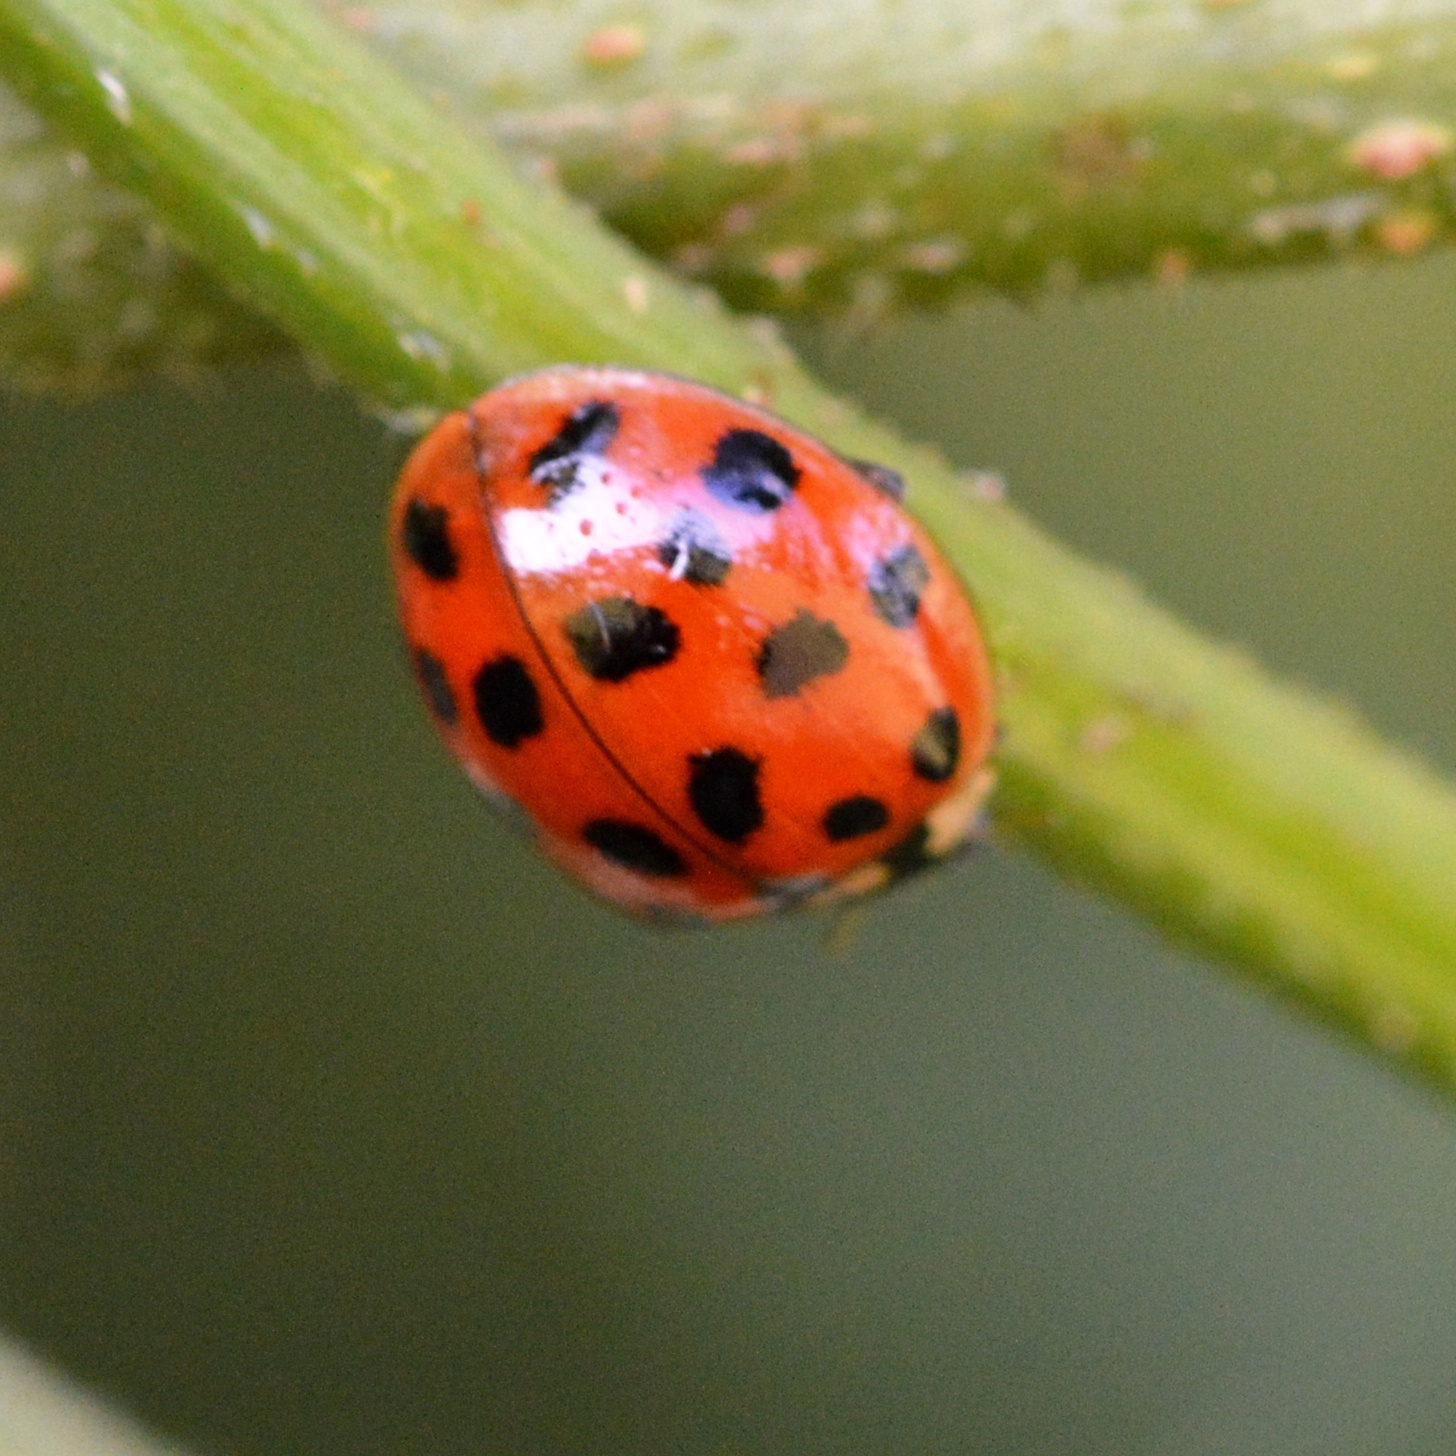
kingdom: Animalia
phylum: Arthropoda
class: Insecta
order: Coleoptera
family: Coccinellidae
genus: Harmonia
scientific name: Harmonia axyridis
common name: Harlequin ladybird
